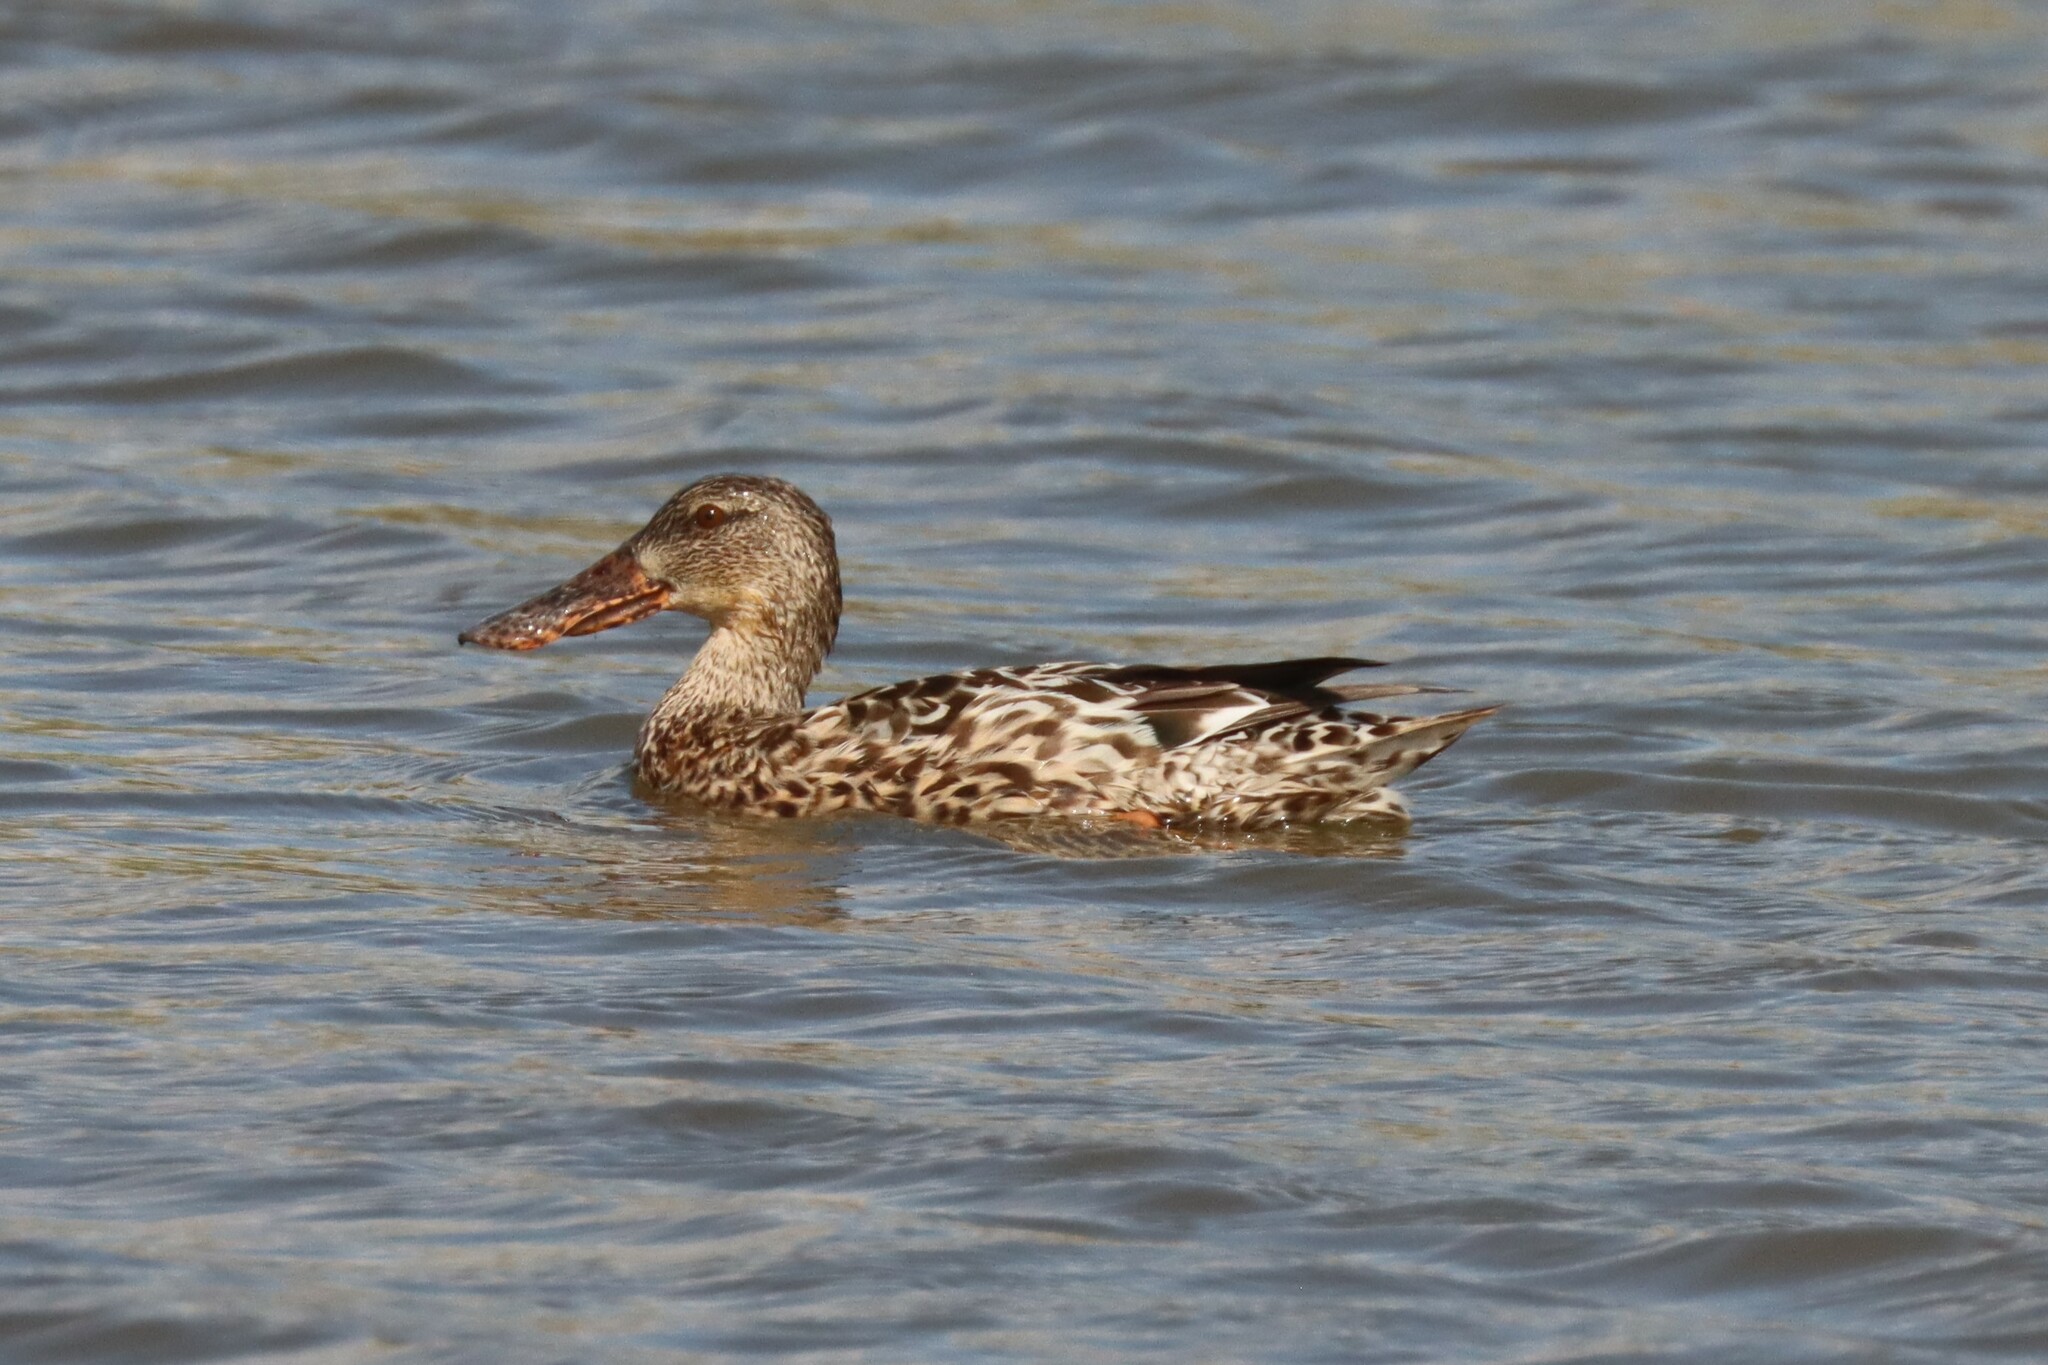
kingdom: Animalia
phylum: Chordata
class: Aves
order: Anseriformes
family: Anatidae
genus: Spatula
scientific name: Spatula clypeata
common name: Northern shoveler
